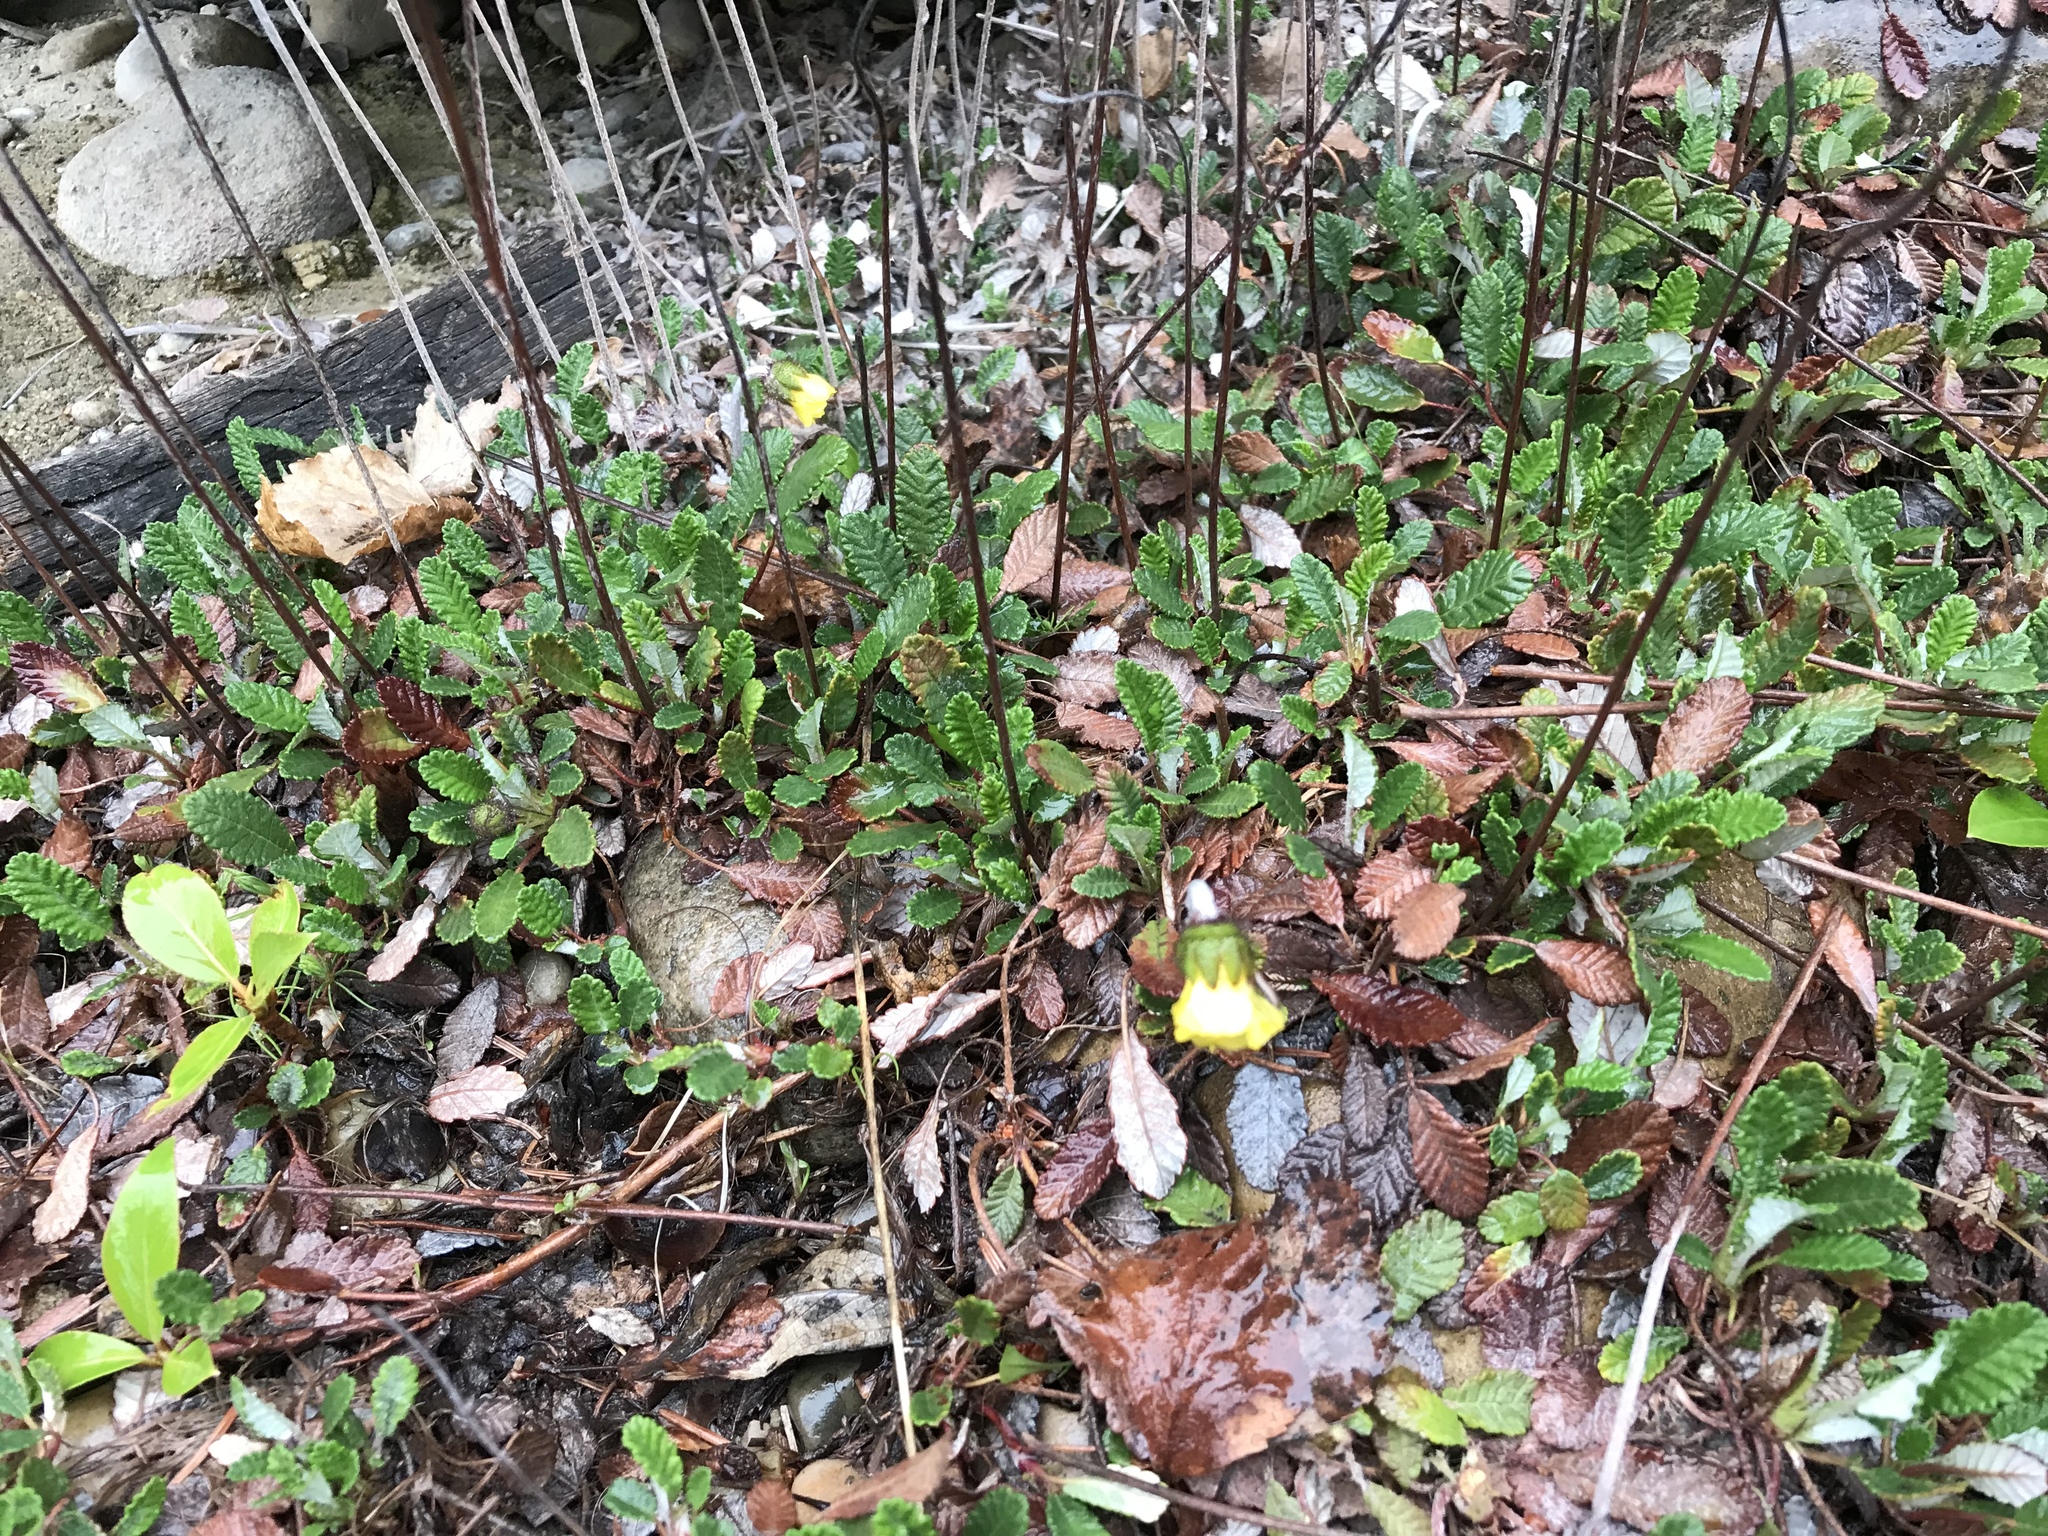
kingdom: Plantae
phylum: Tracheophyta
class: Magnoliopsida
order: Rosales
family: Rosaceae
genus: Dryas
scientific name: Dryas drummondii
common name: Drummond's dryad
